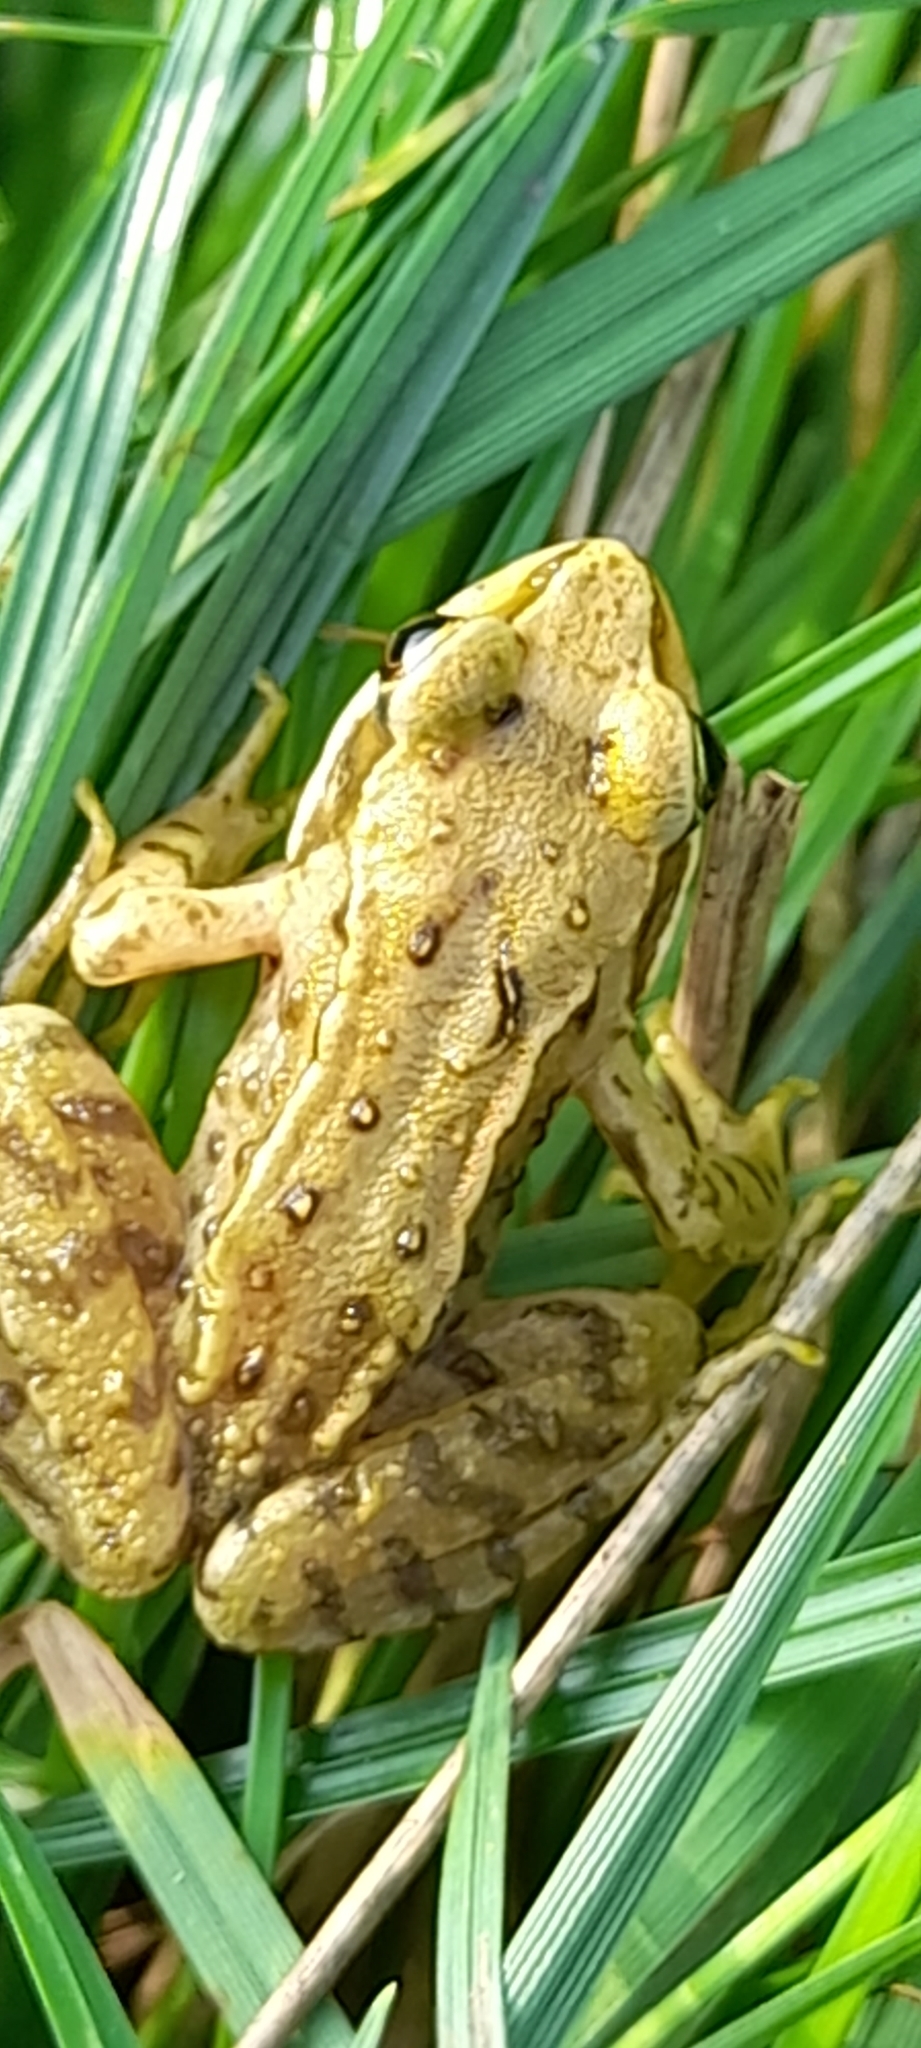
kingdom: Animalia
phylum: Chordata
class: Amphibia
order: Anura
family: Ranidae
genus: Rana
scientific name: Rana temporaria
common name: Common frog
